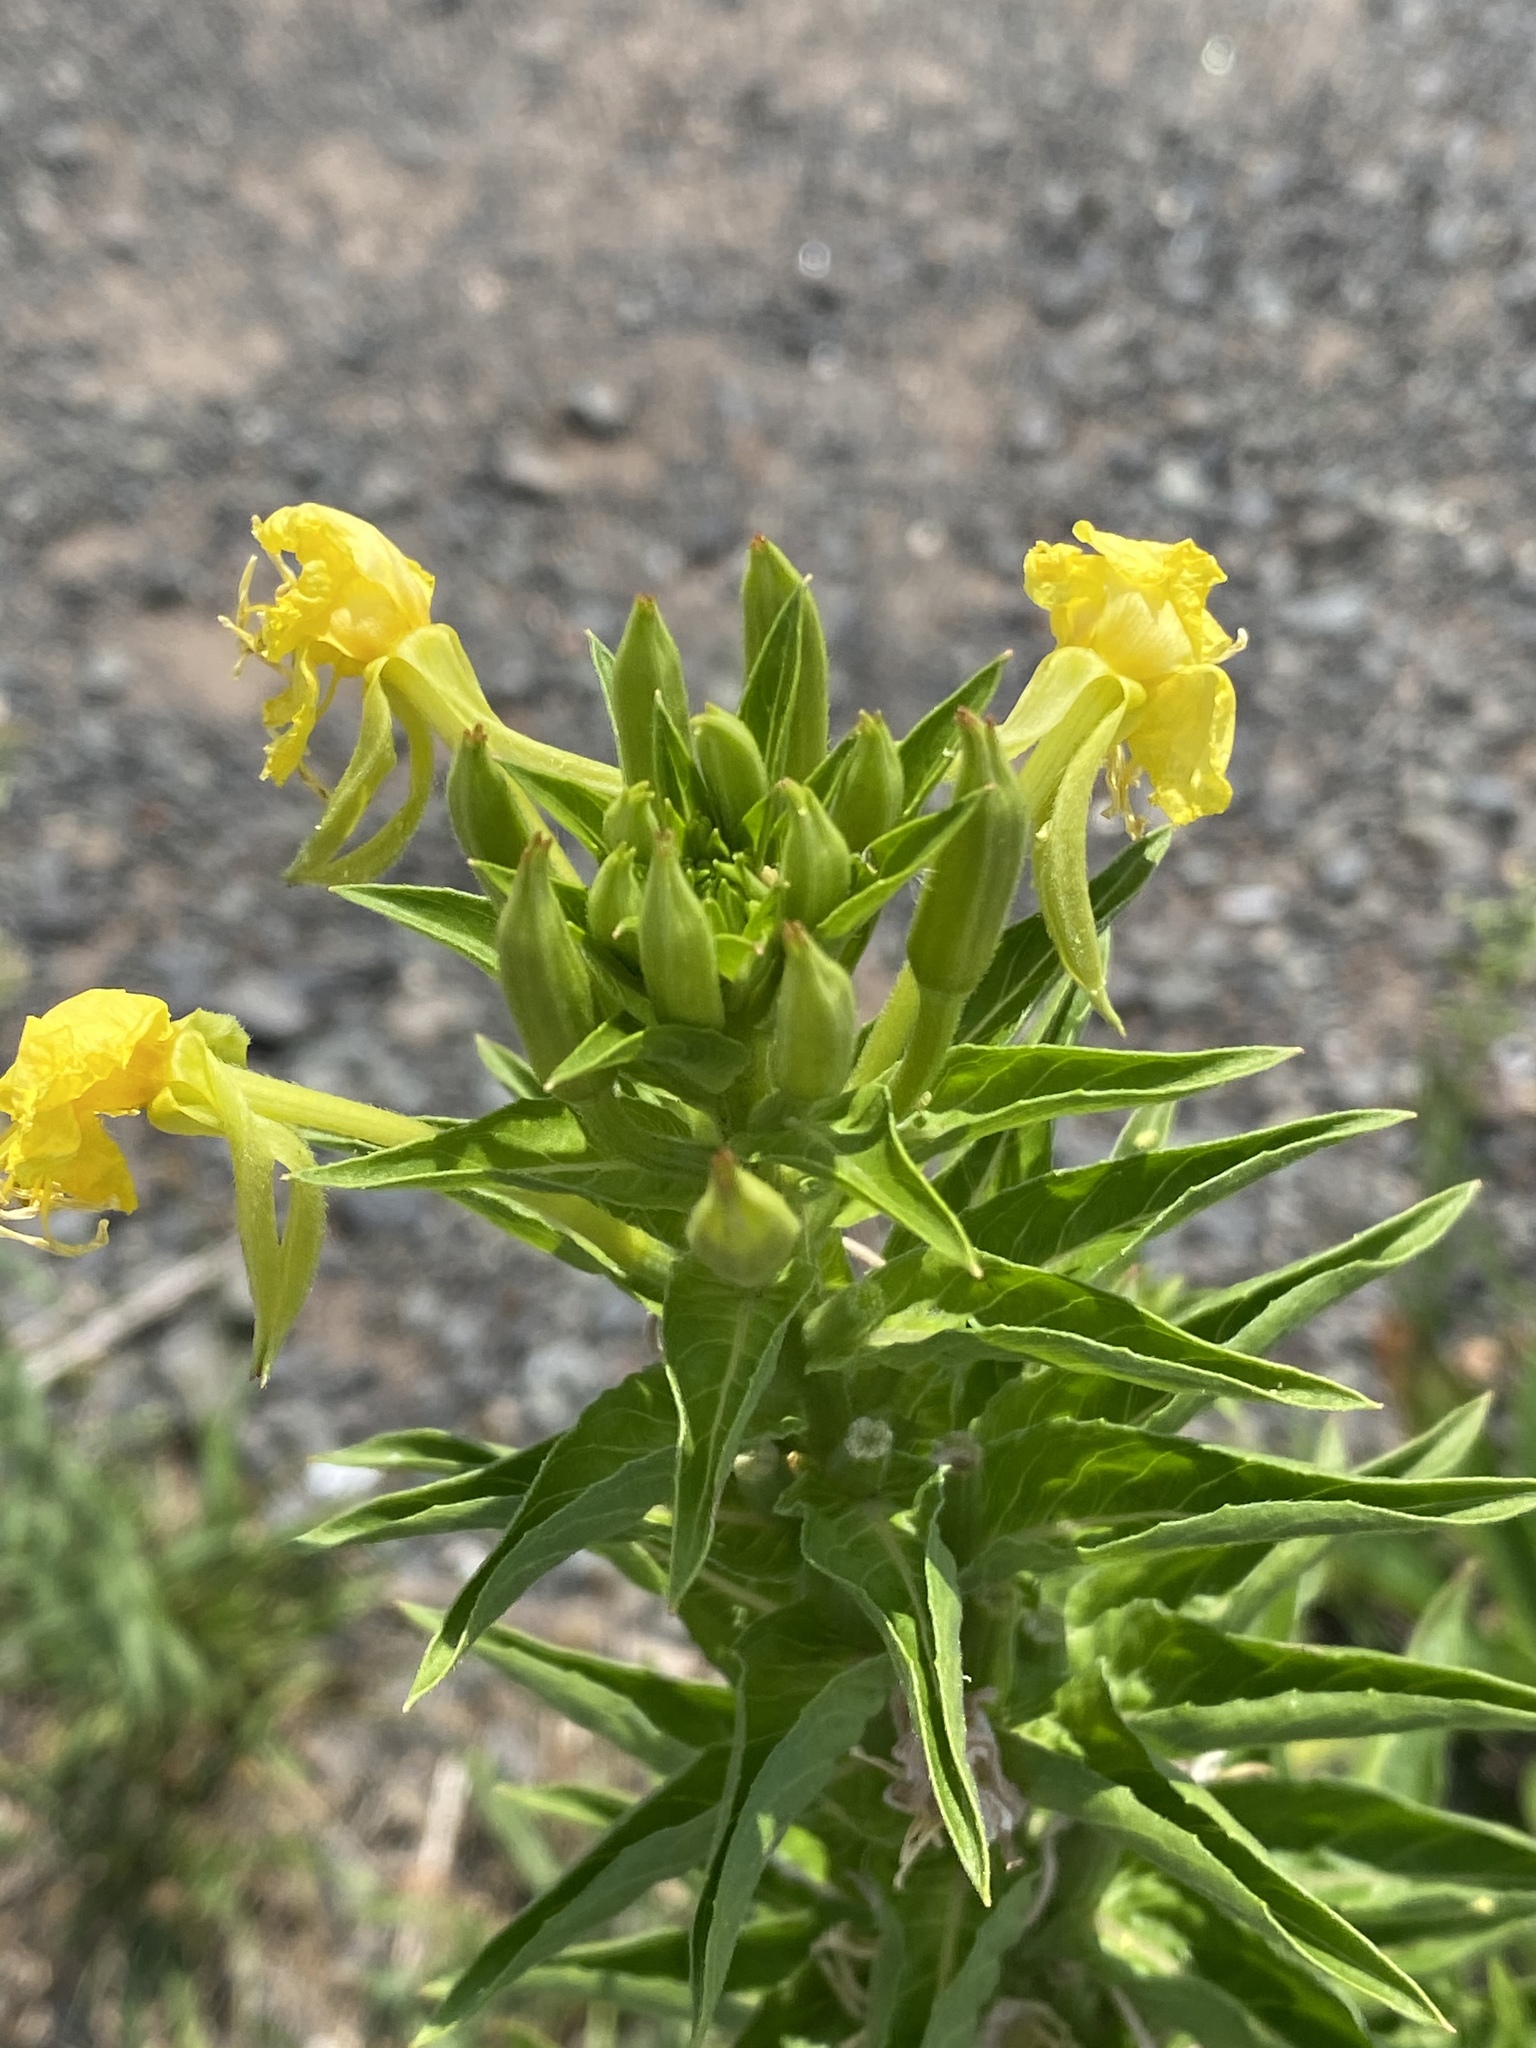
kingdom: Plantae
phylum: Tracheophyta
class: Magnoliopsida
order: Myrtales
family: Onagraceae
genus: Oenothera
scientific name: Oenothera biennis
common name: Common evening-primrose
